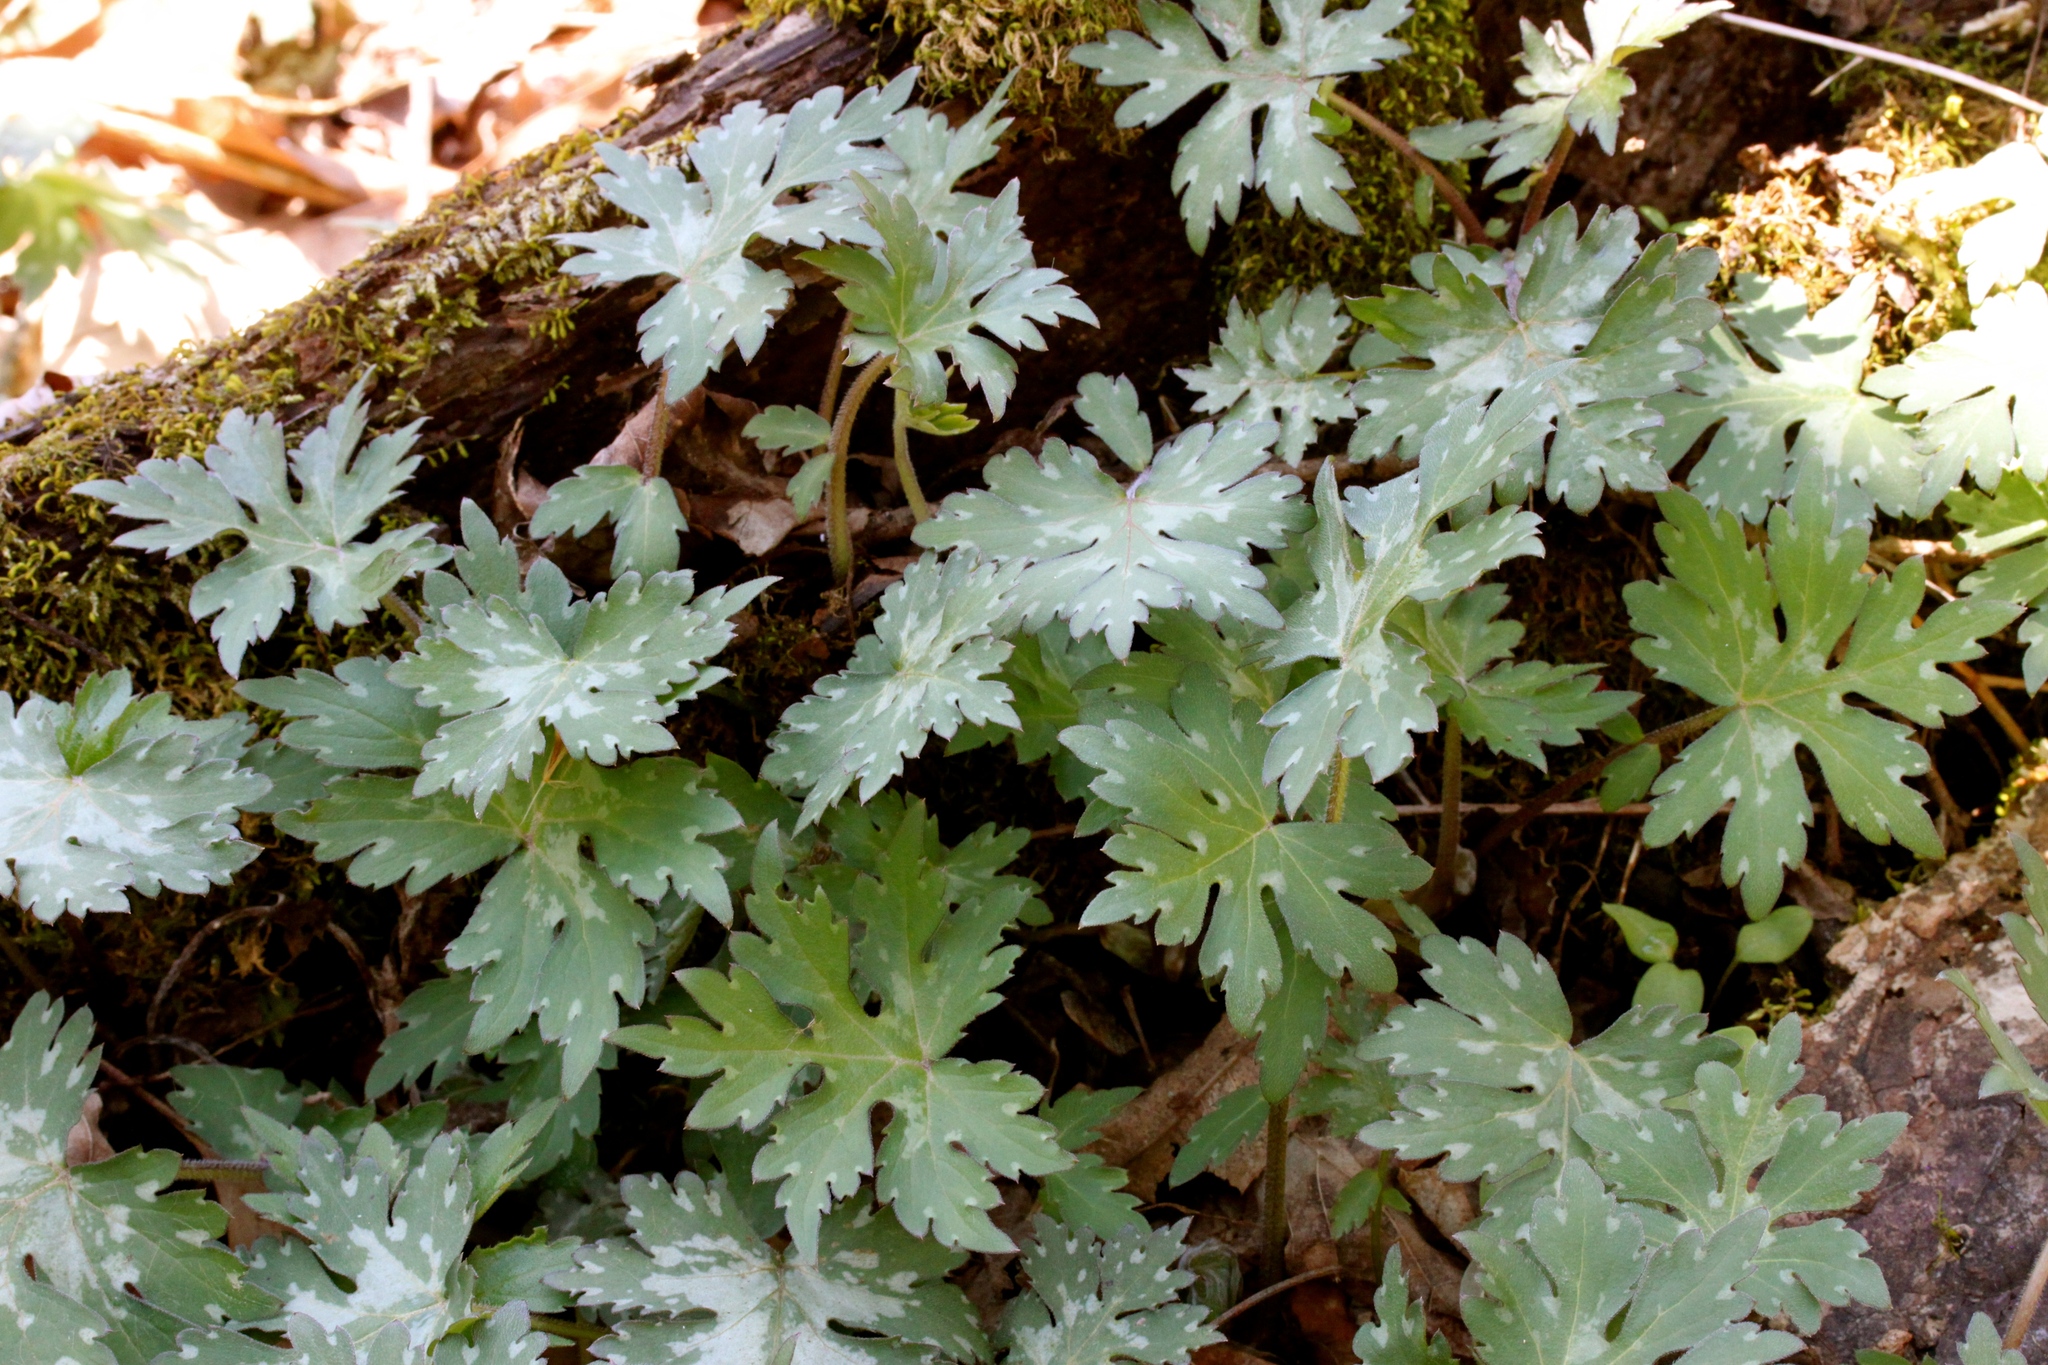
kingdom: Plantae
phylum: Tracheophyta
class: Magnoliopsida
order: Boraginales
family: Hydrophyllaceae
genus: Hydrophyllum
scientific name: Hydrophyllum virginianum
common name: Virginia waterleaf
